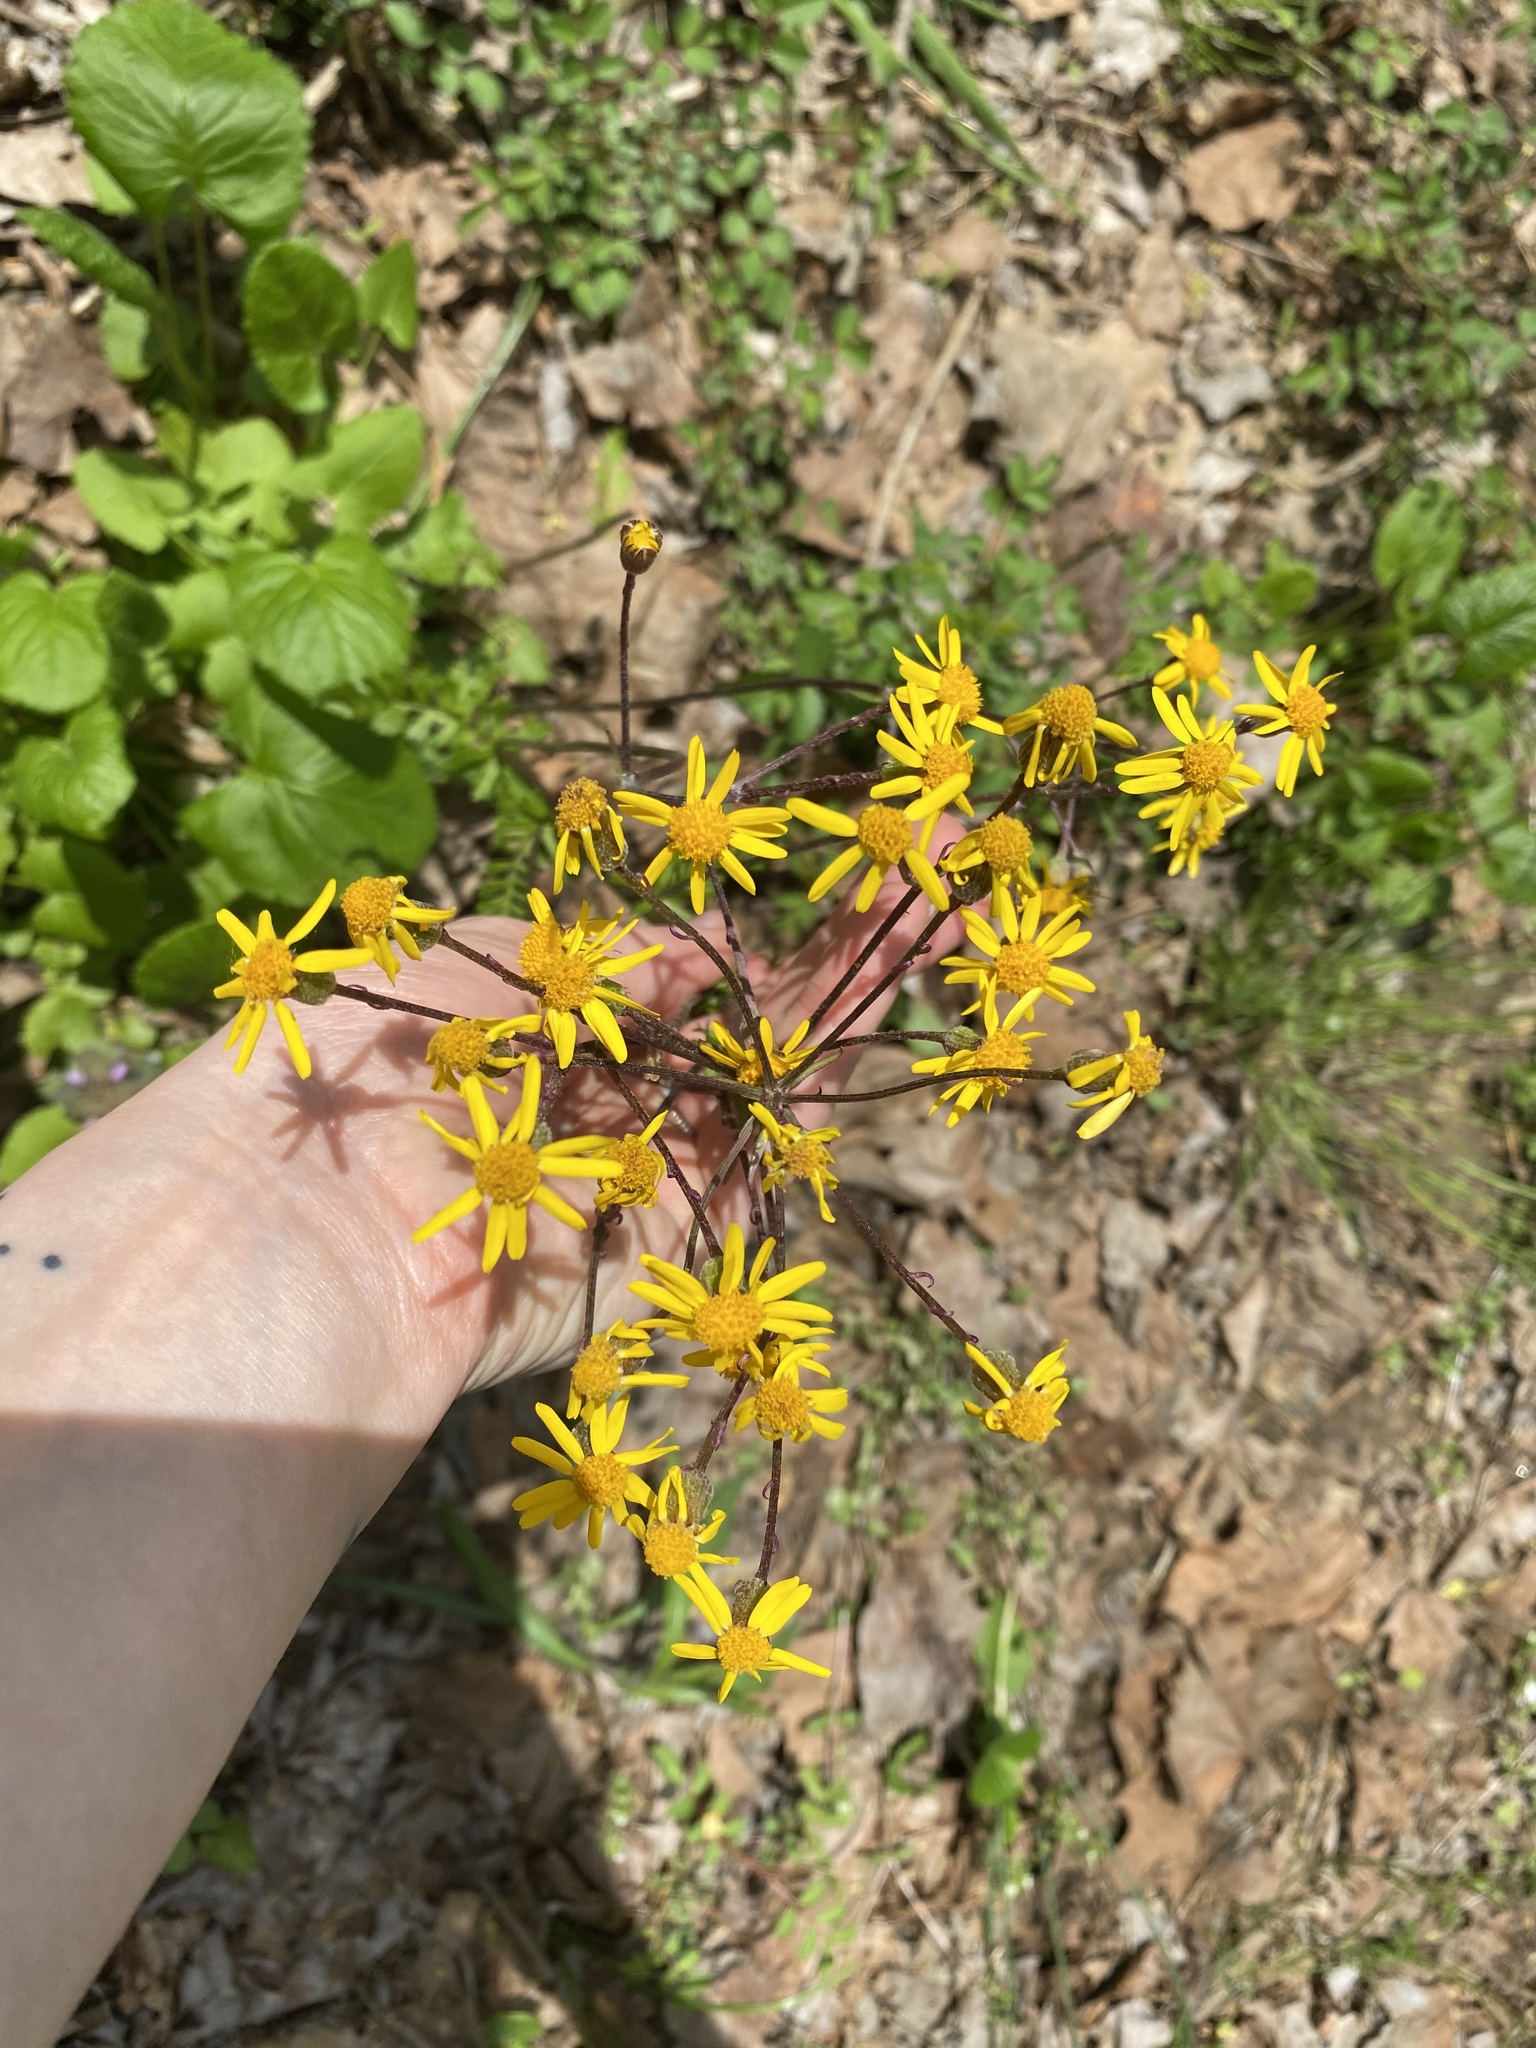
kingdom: Plantae
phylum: Tracheophyta
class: Magnoliopsida
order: Asterales
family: Asteraceae
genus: Packera
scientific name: Packera aurea
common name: Golden groundsel
